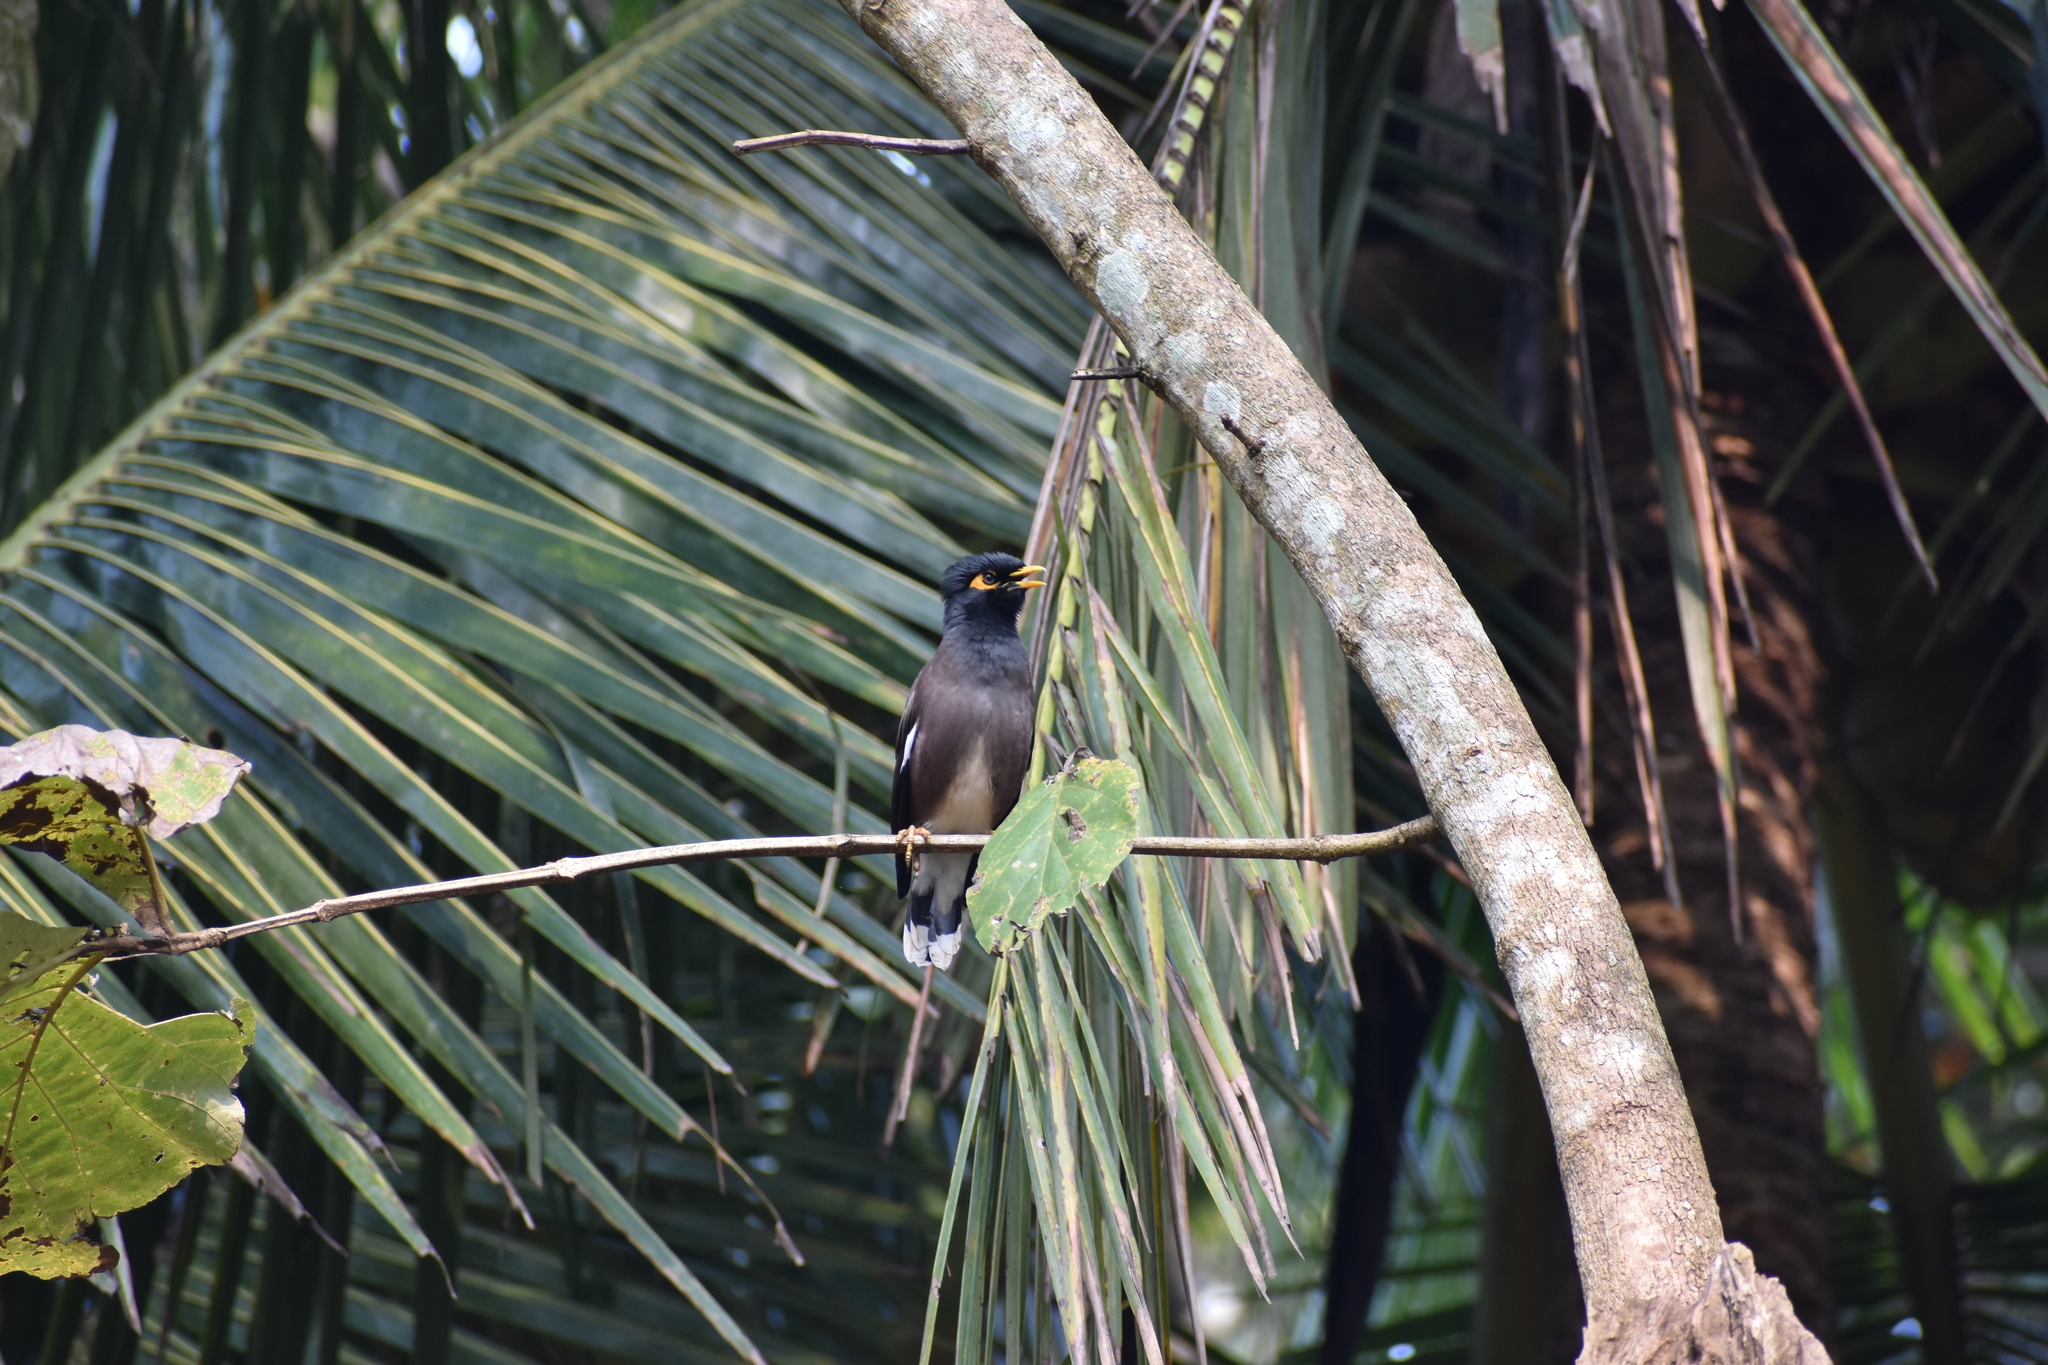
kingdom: Animalia
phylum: Chordata
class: Aves
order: Passeriformes
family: Sturnidae
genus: Acridotheres
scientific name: Acridotheres tristis
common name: Common myna
